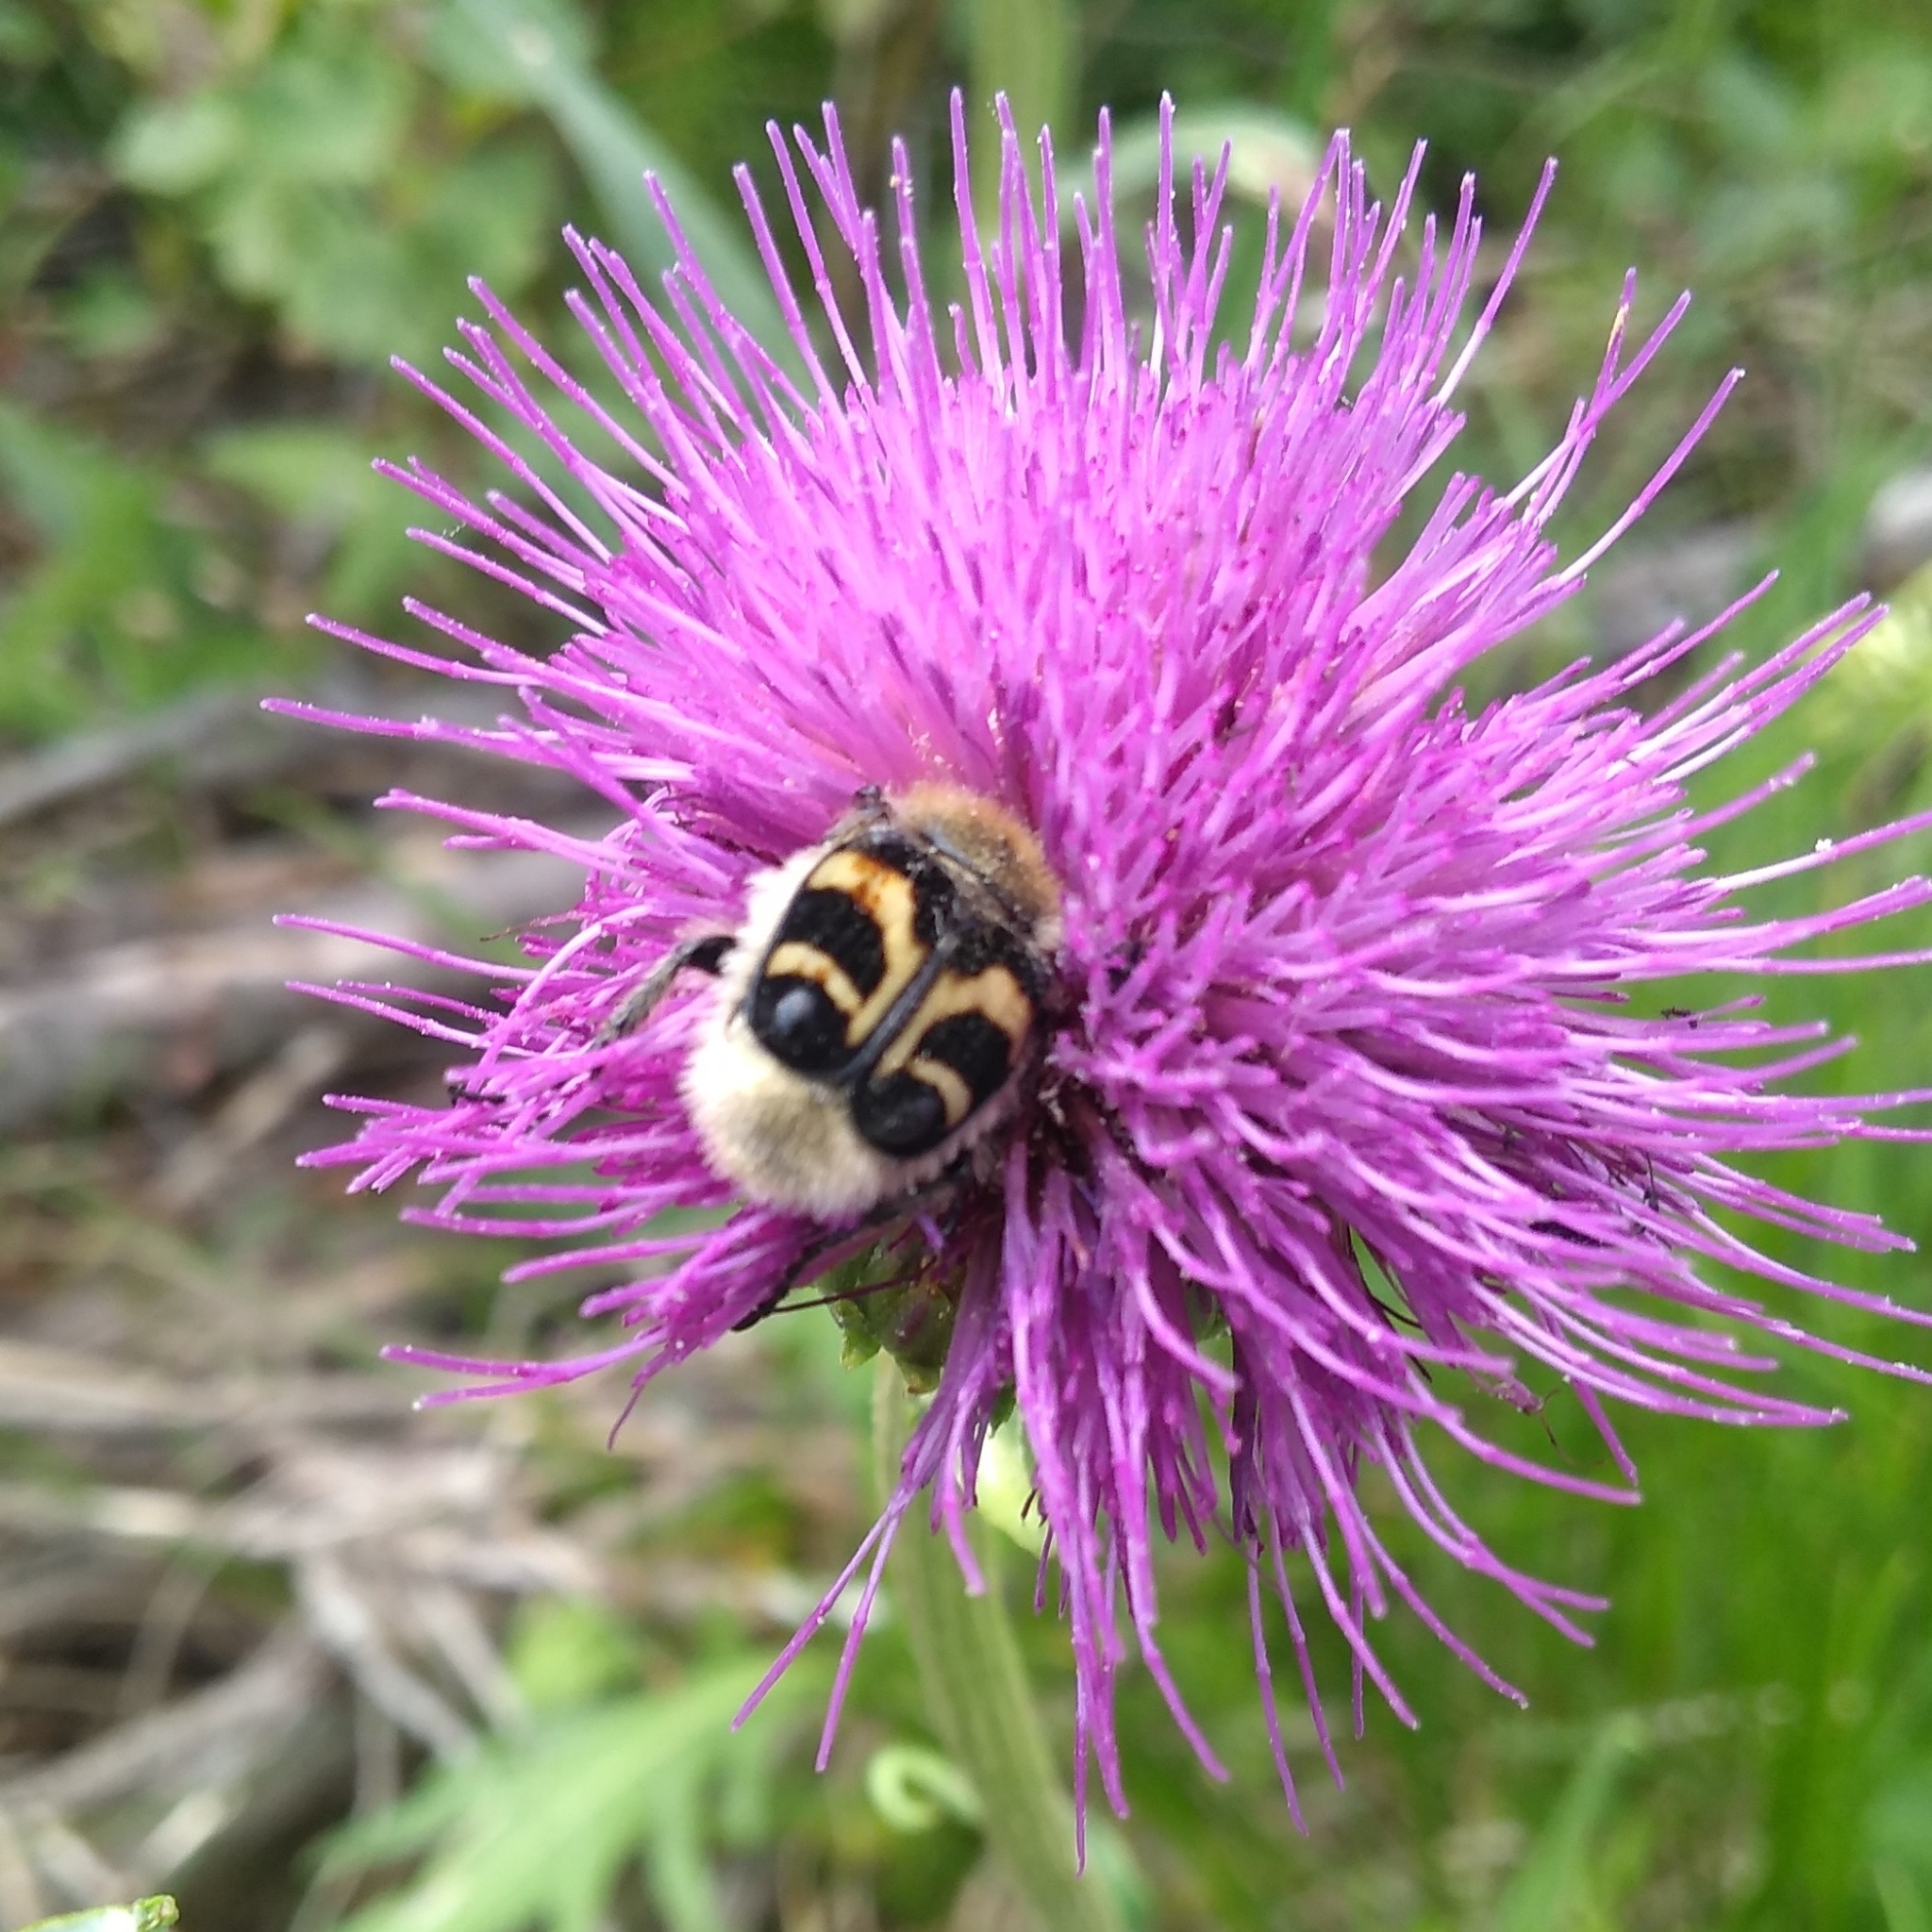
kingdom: Animalia
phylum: Arthropoda
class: Insecta
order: Coleoptera
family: Scarabaeidae
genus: Trichius
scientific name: Trichius fasciatus
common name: Bee beetle
